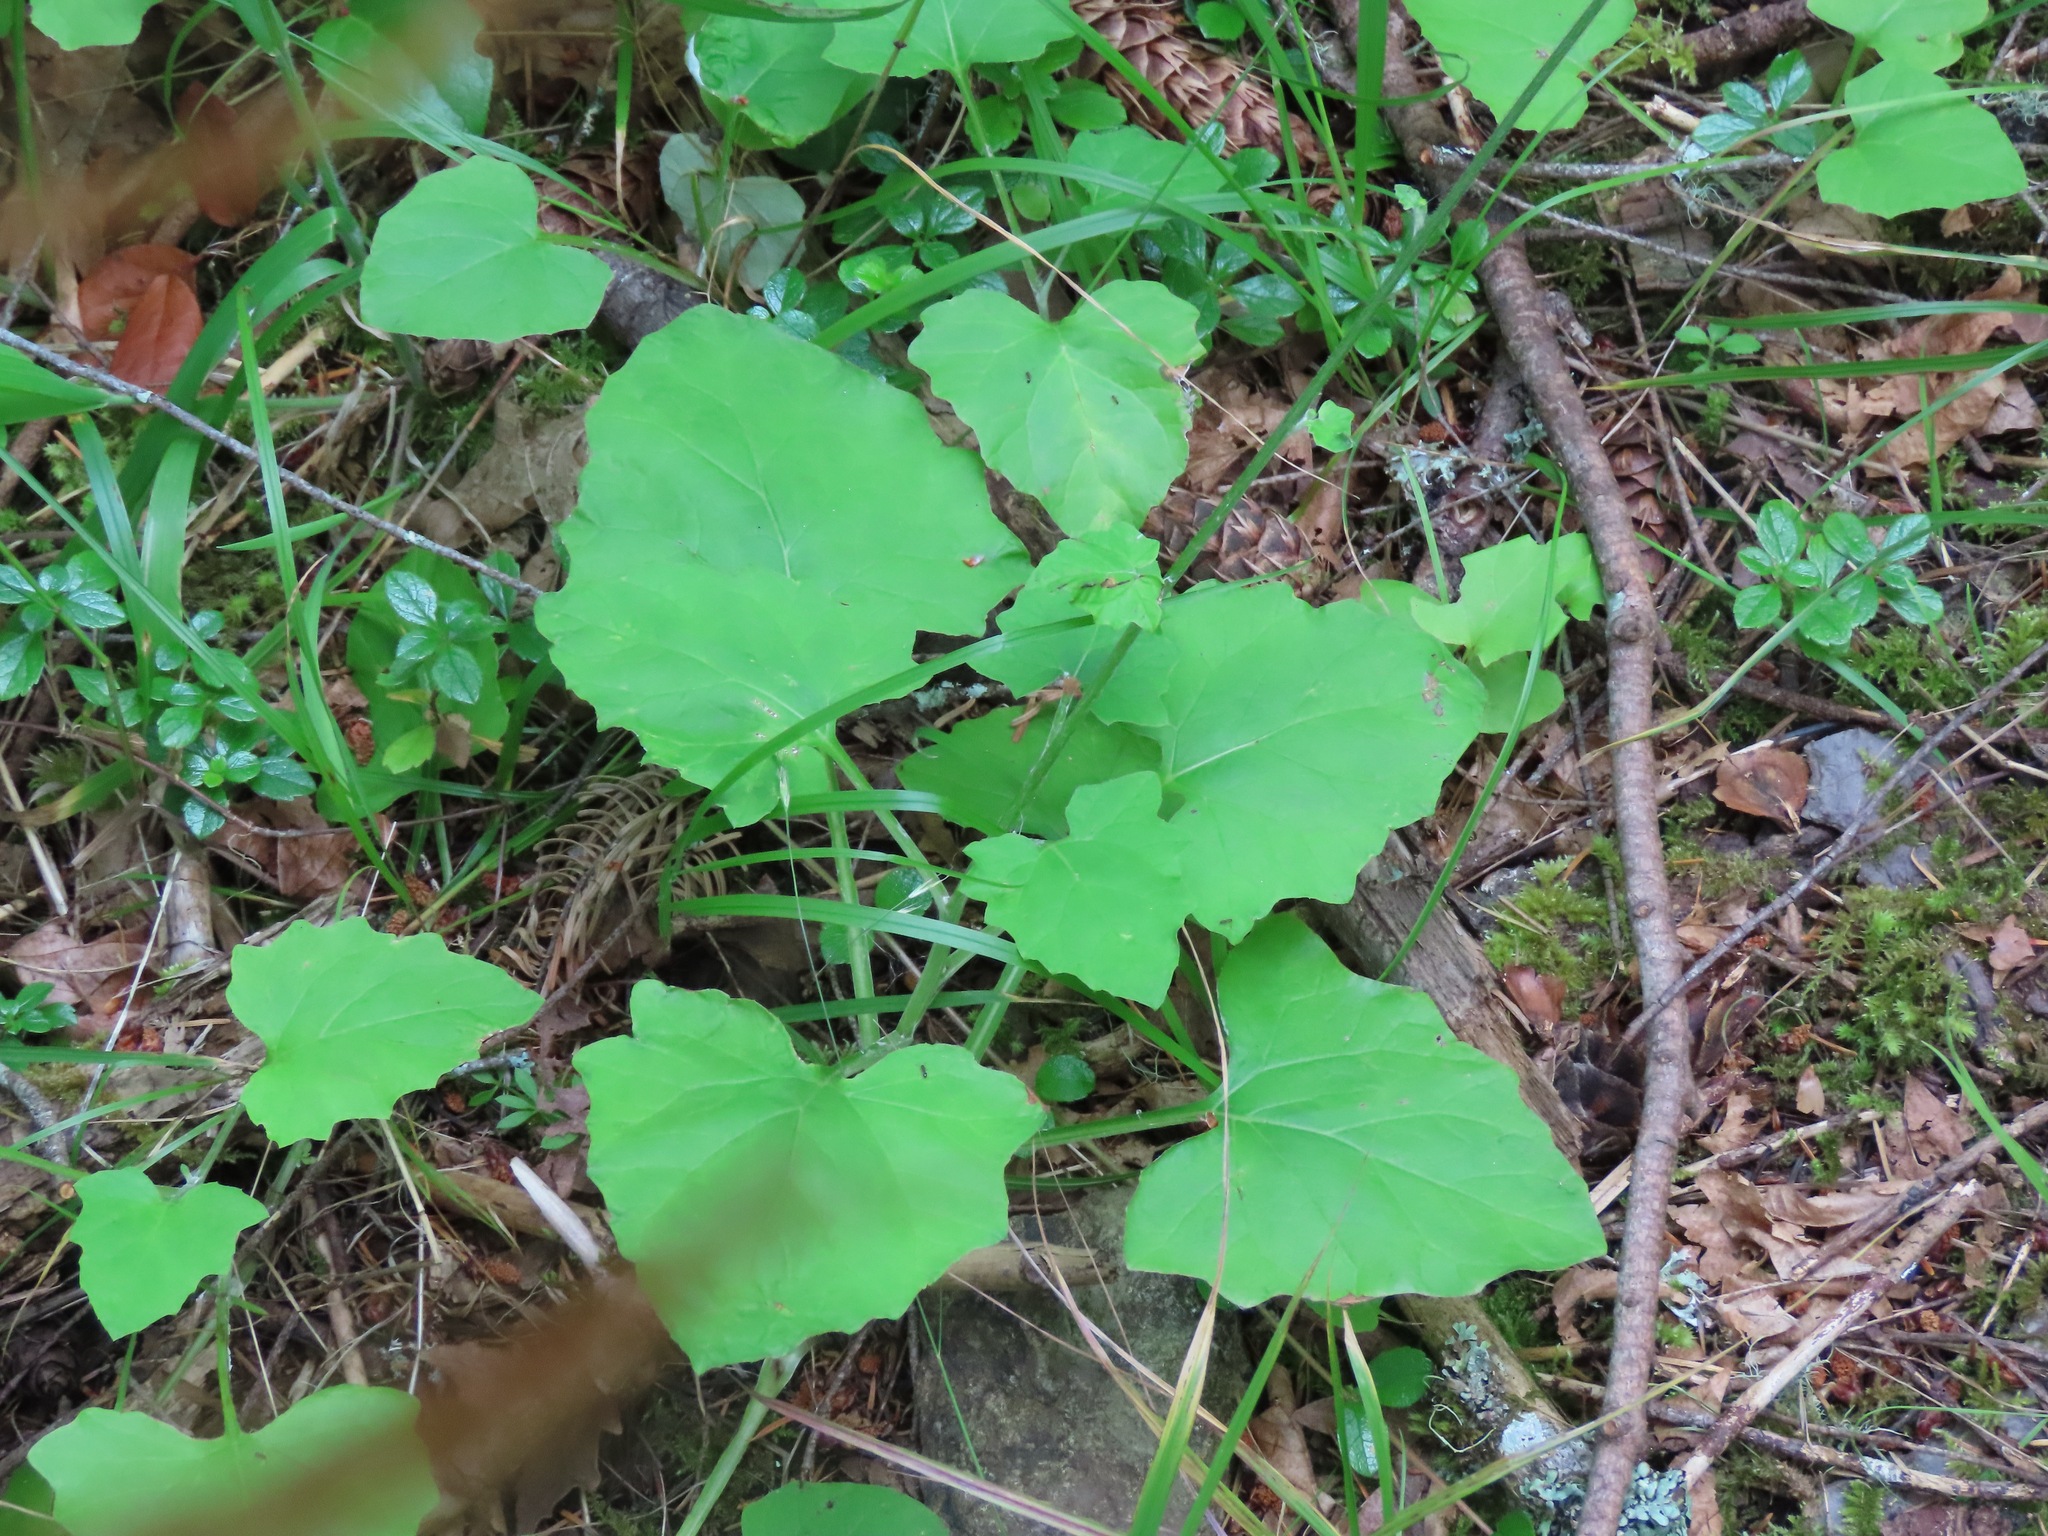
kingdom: Plantae
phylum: Tracheophyta
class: Magnoliopsida
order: Asterales
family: Asteraceae
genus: Adenocaulon
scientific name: Adenocaulon bicolor
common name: Trailplant
